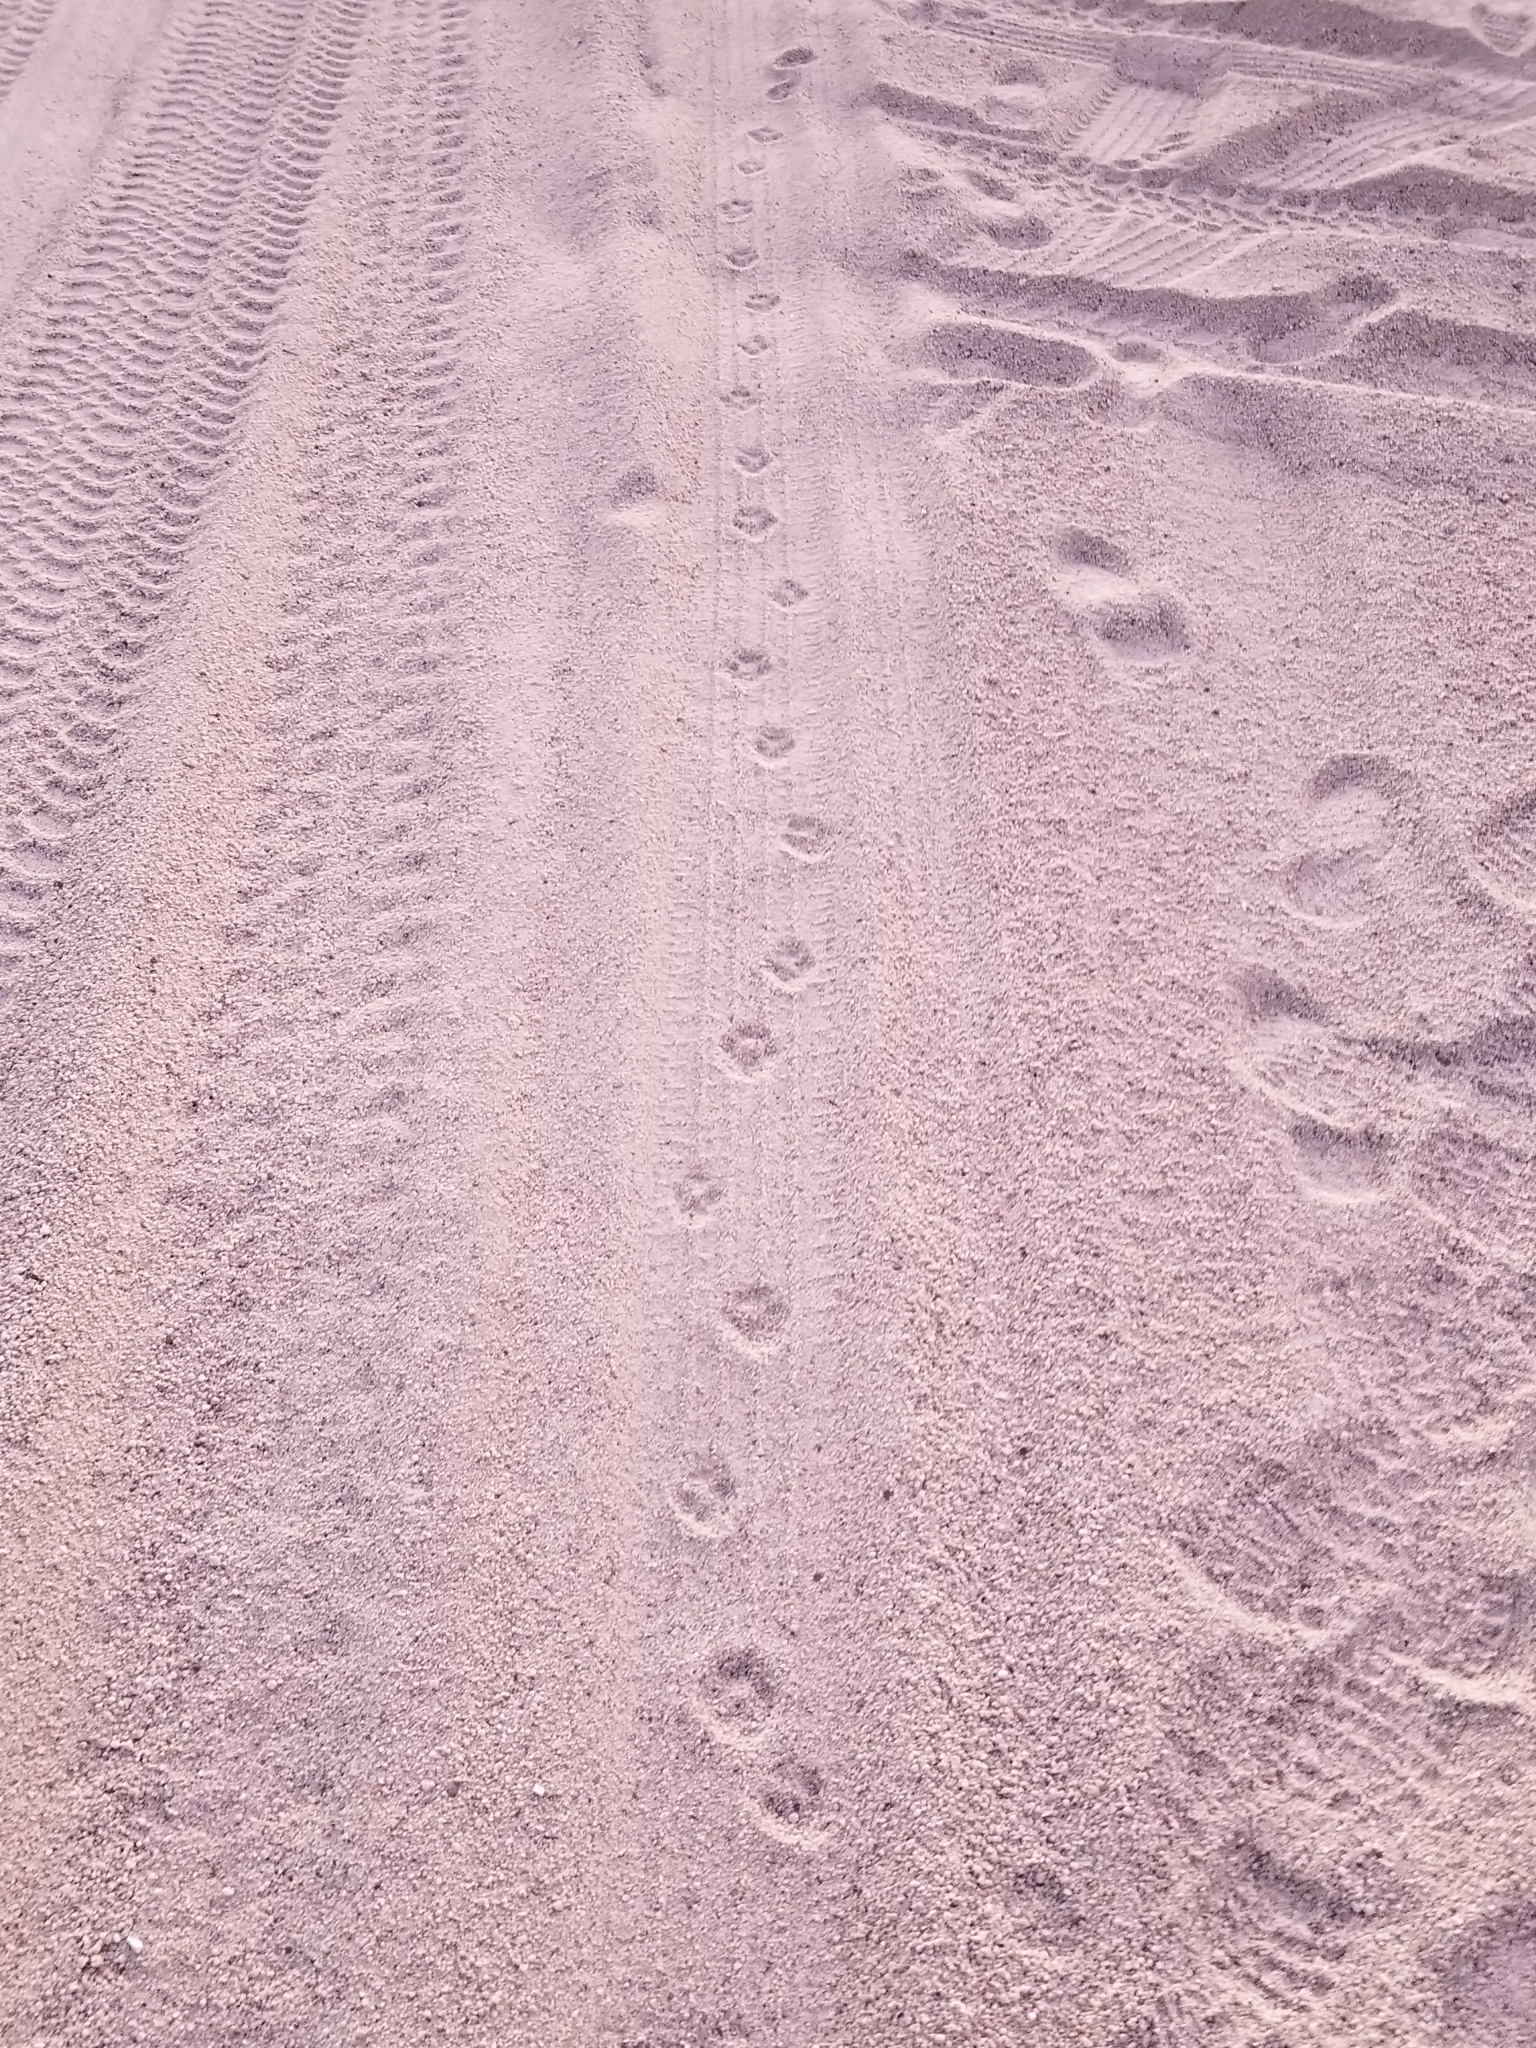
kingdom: Animalia
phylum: Chordata
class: Mammalia
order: Carnivora
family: Canidae
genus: Canis
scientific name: Canis latrans
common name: Coyote
